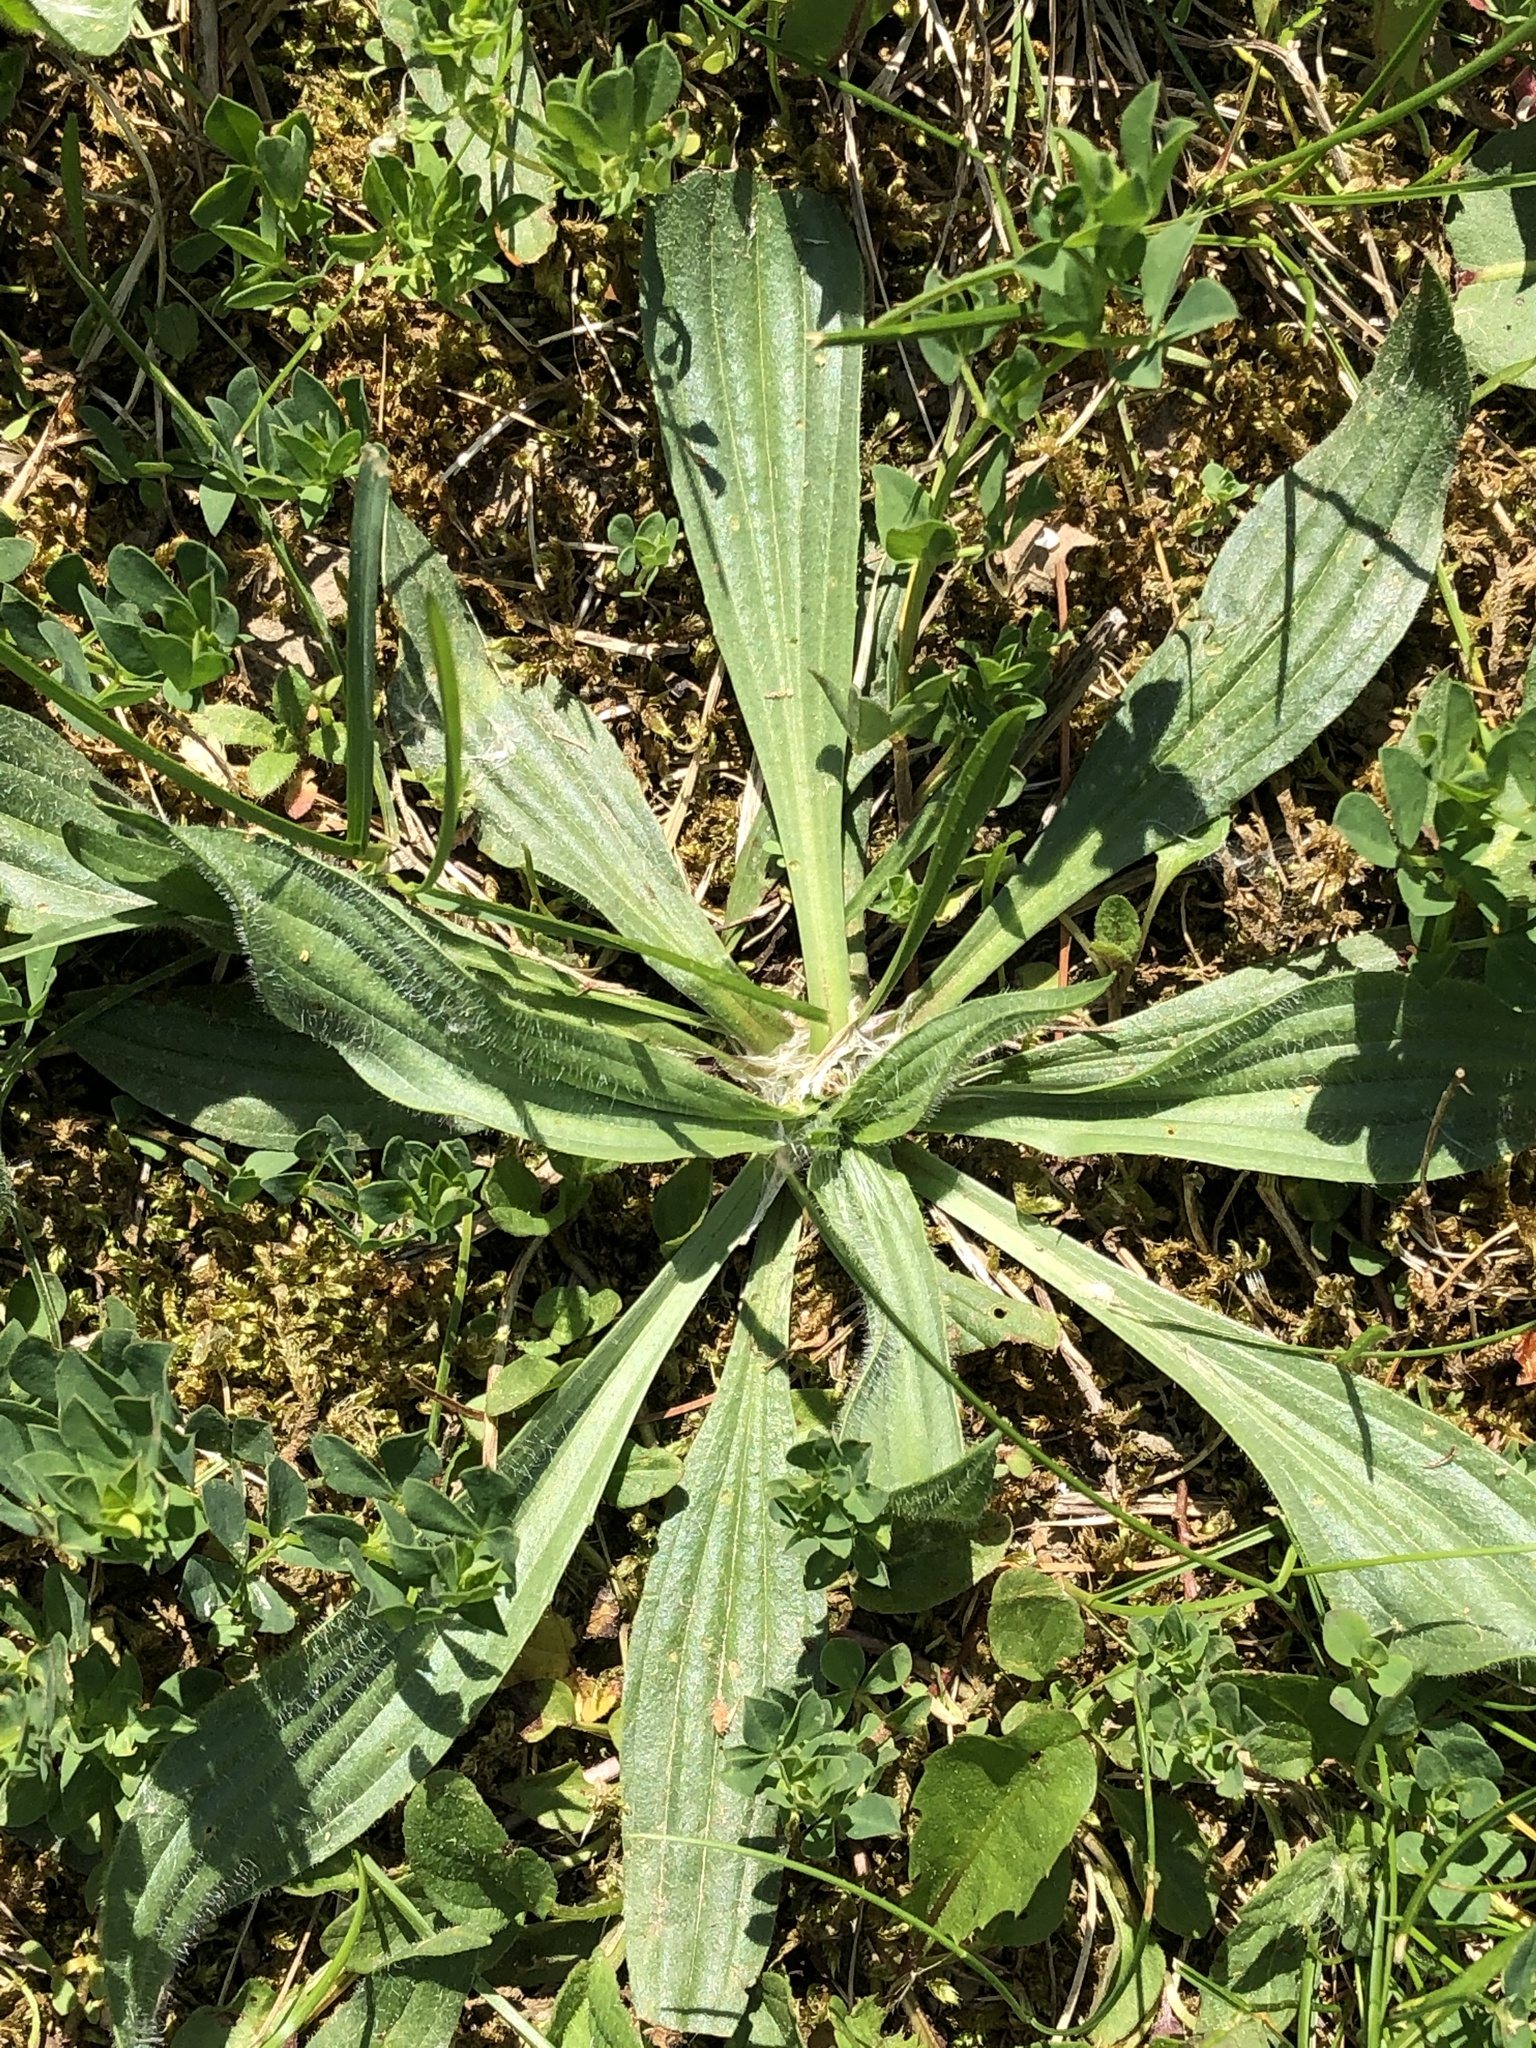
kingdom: Plantae
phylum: Tracheophyta
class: Magnoliopsida
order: Lamiales
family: Plantaginaceae
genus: Plantago
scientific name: Plantago lanceolata
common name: Ribwort plantain
